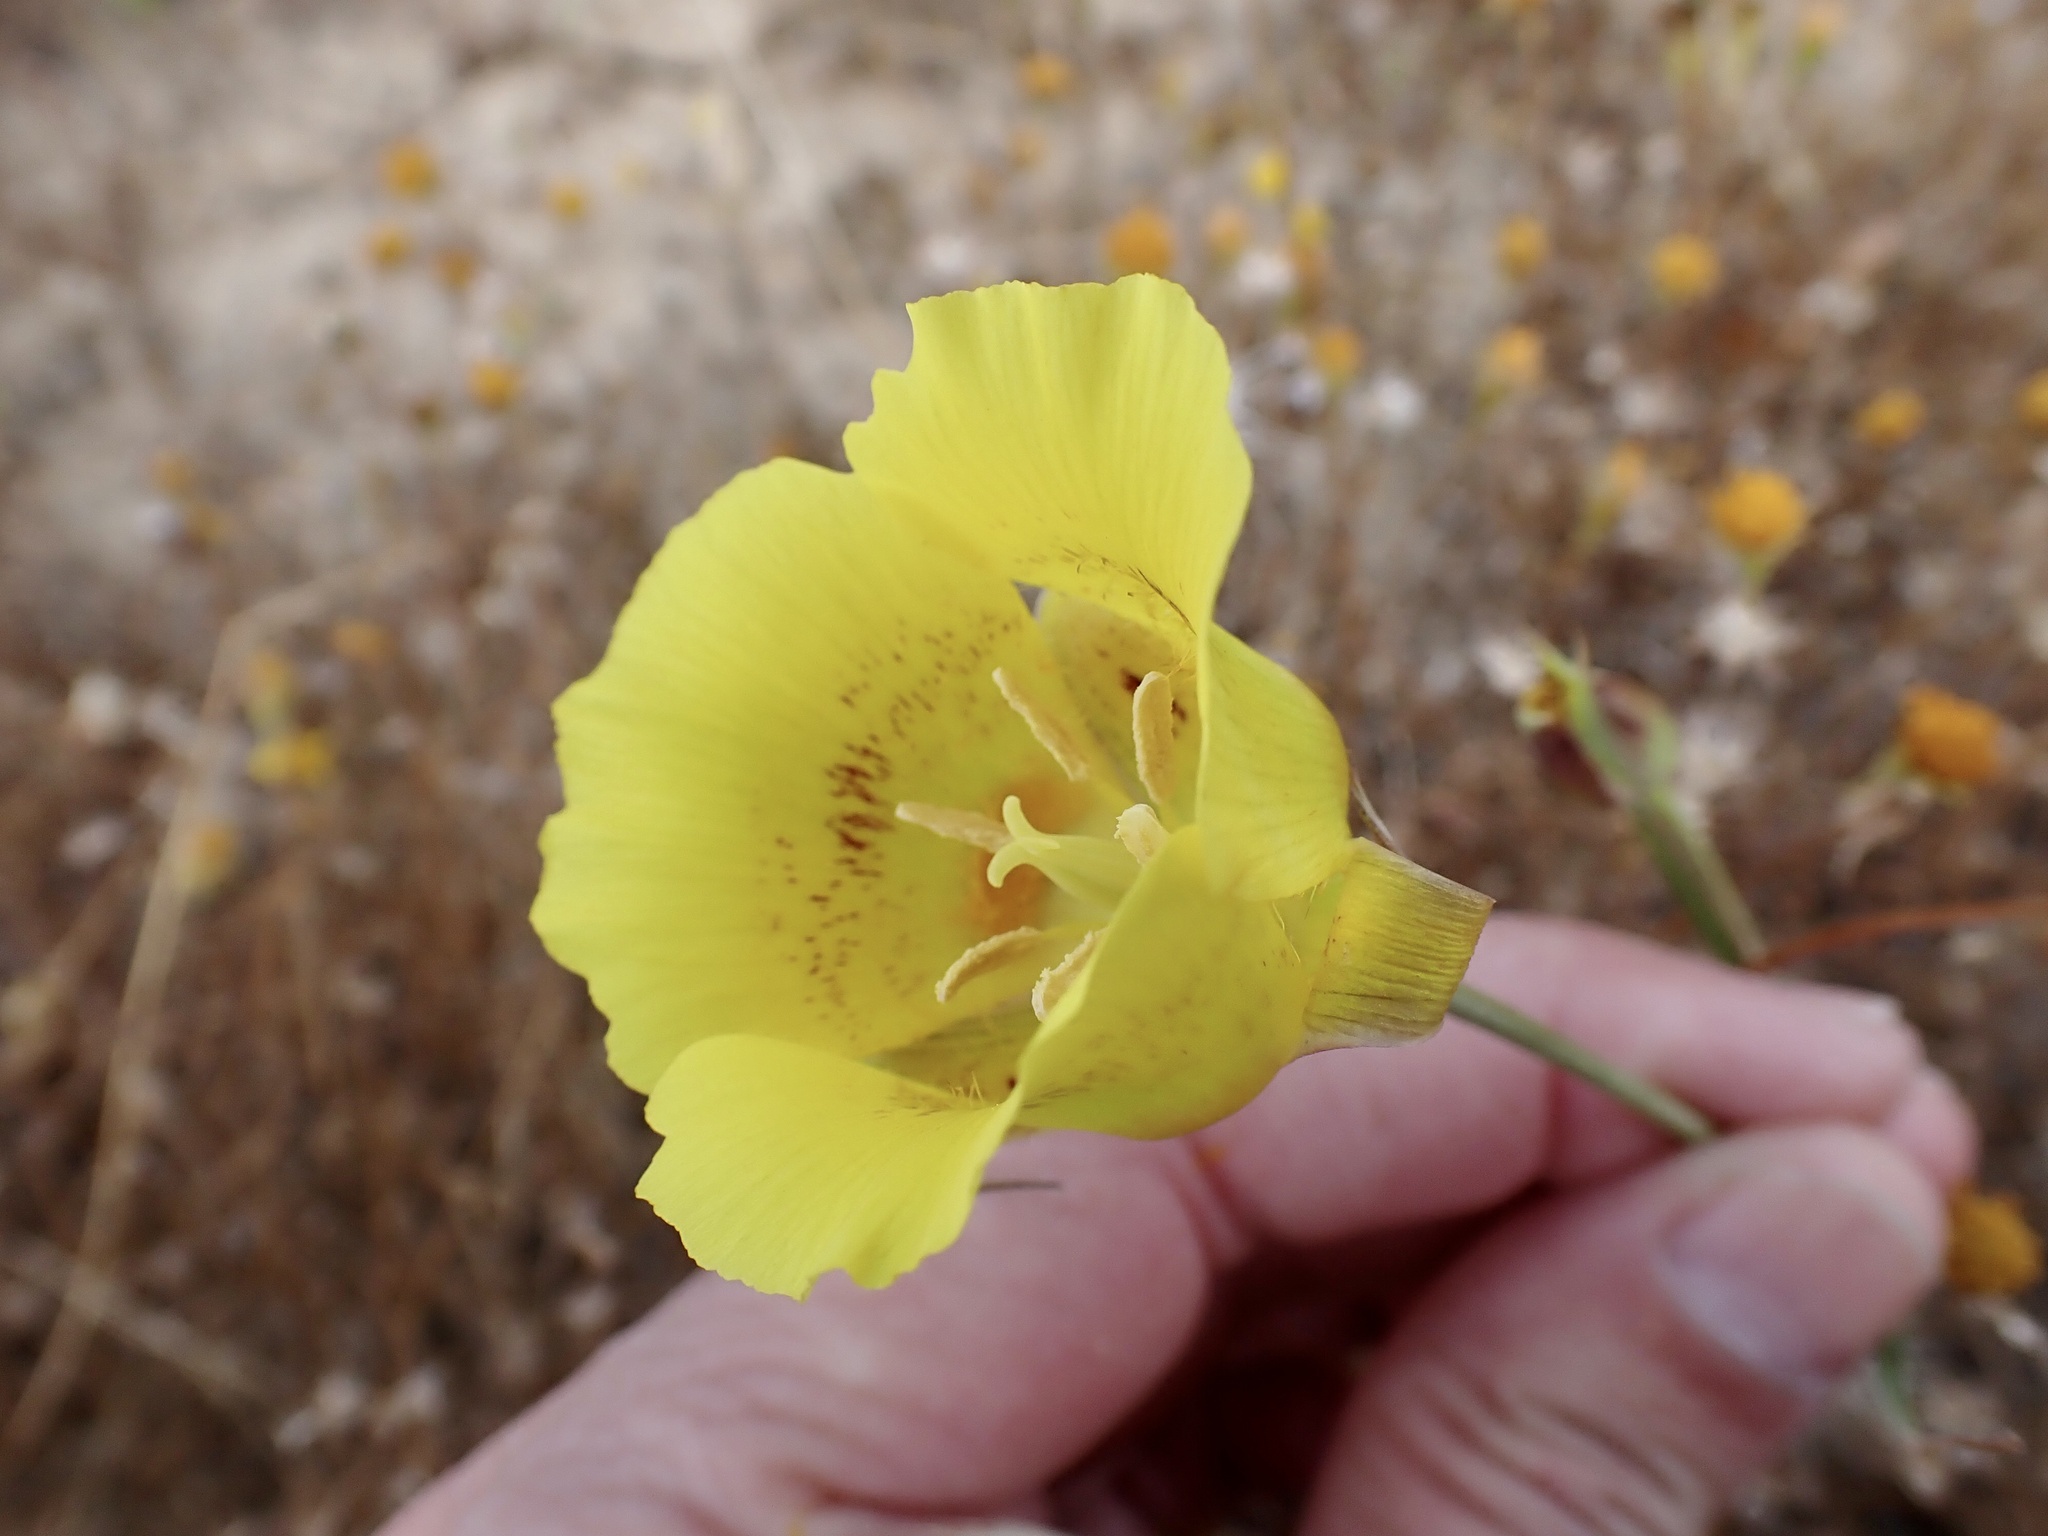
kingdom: Plantae
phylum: Tracheophyta
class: Liliopsida
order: Liliales
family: Liliaceae
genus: Calochortus
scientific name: Calochortus luteus
